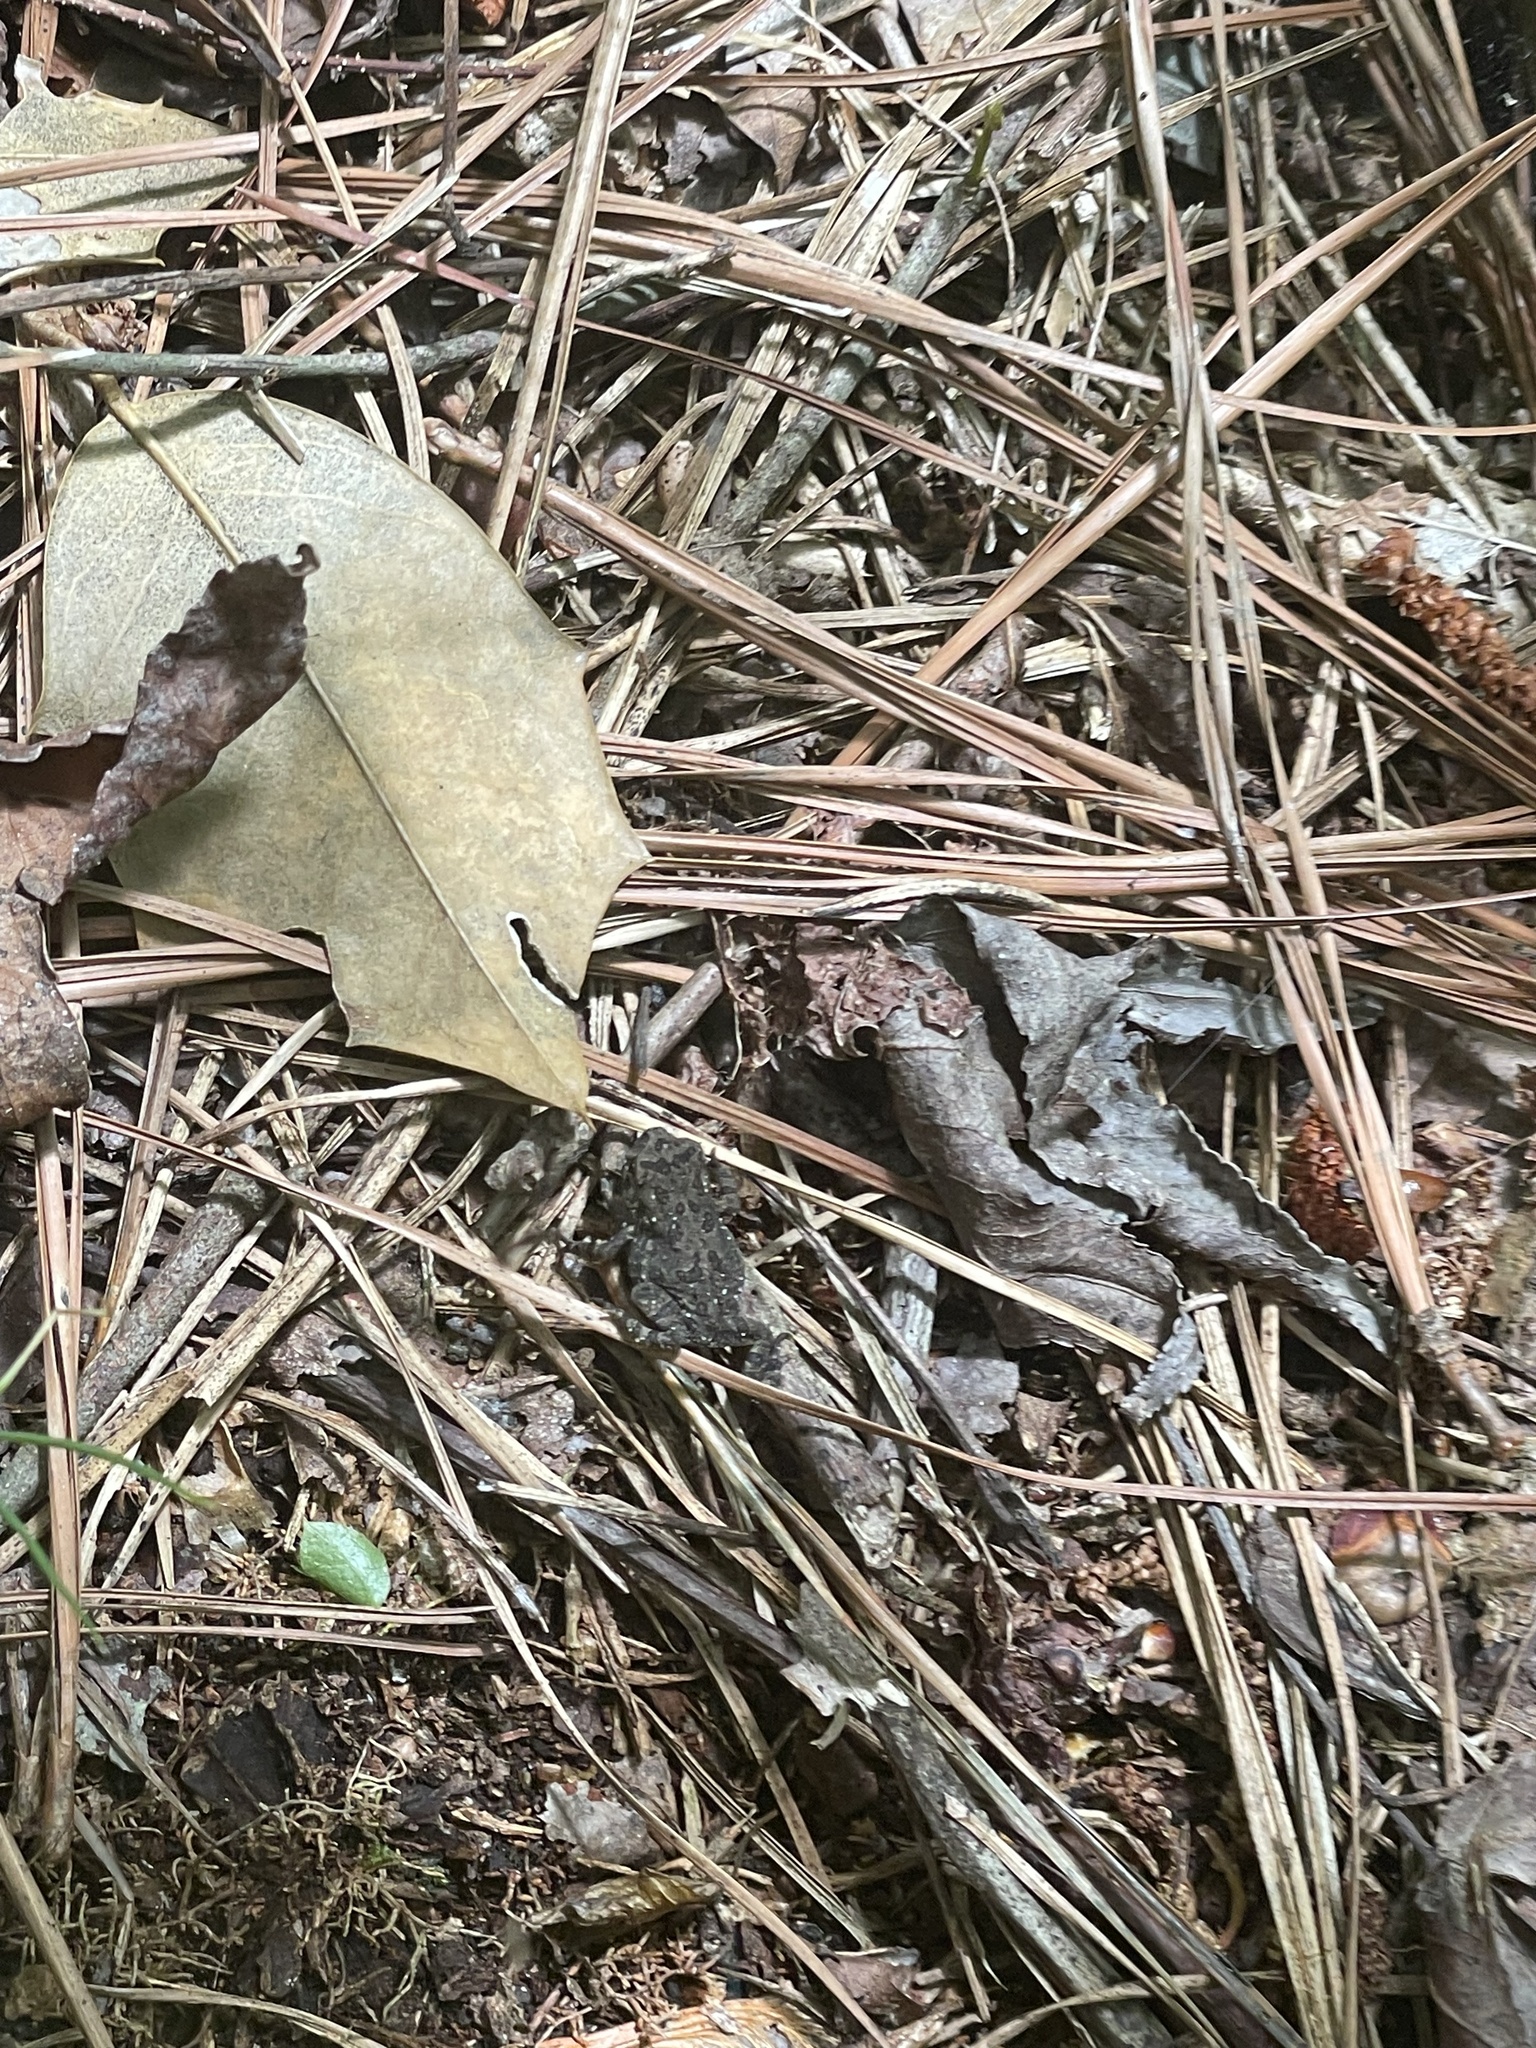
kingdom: Animalia
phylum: Chordata
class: Amphibia
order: Anura
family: Bufonidae
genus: Anaxyrus
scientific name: Anaxyrus fowleri
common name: Fowler's toad
